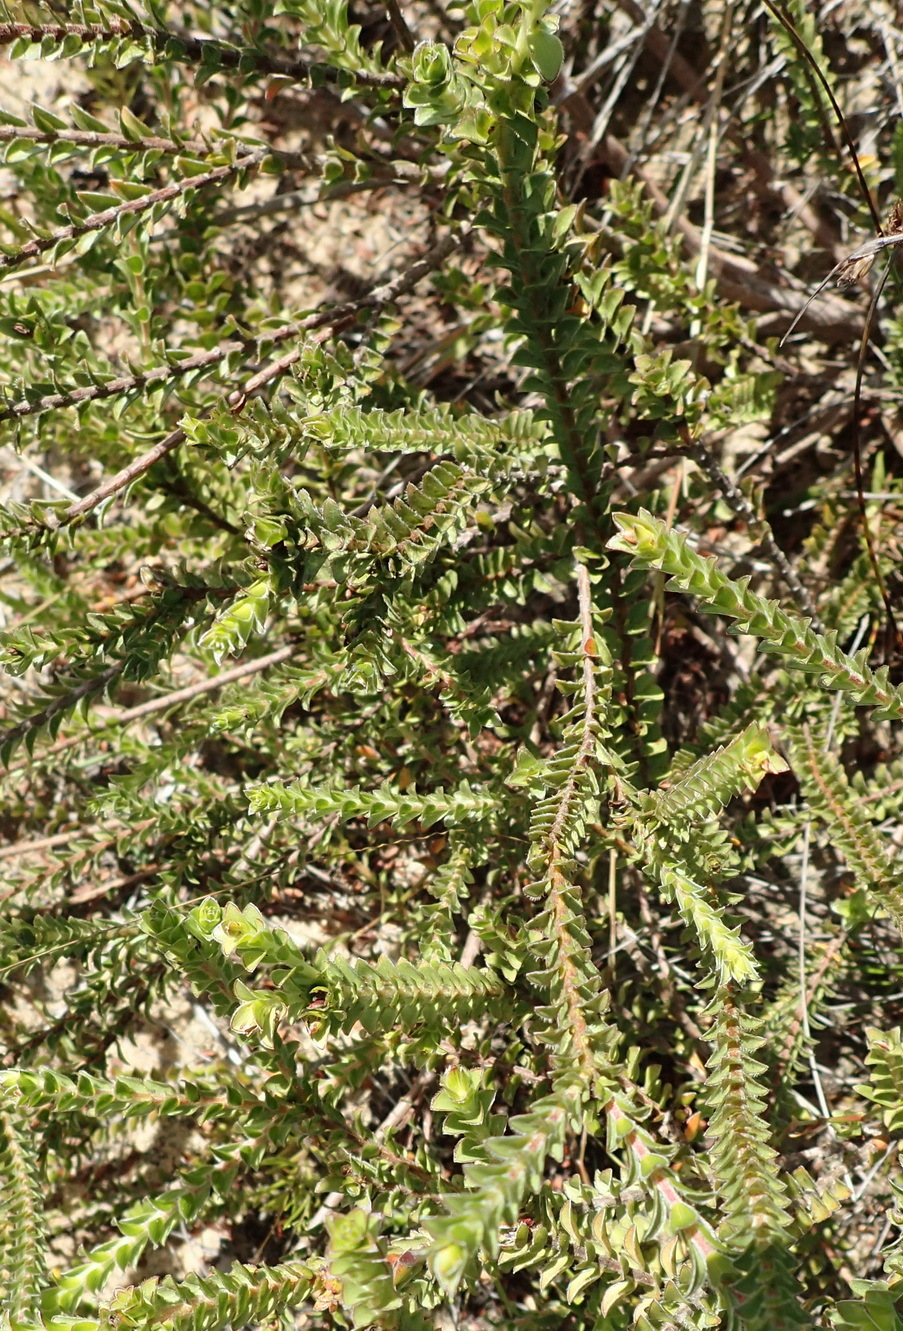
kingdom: Plantae
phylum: Tracheophyta
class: Magnoliopsida
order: Malvales
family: Thymelaeaceae
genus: Struthiola
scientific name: Struthiola argentea
